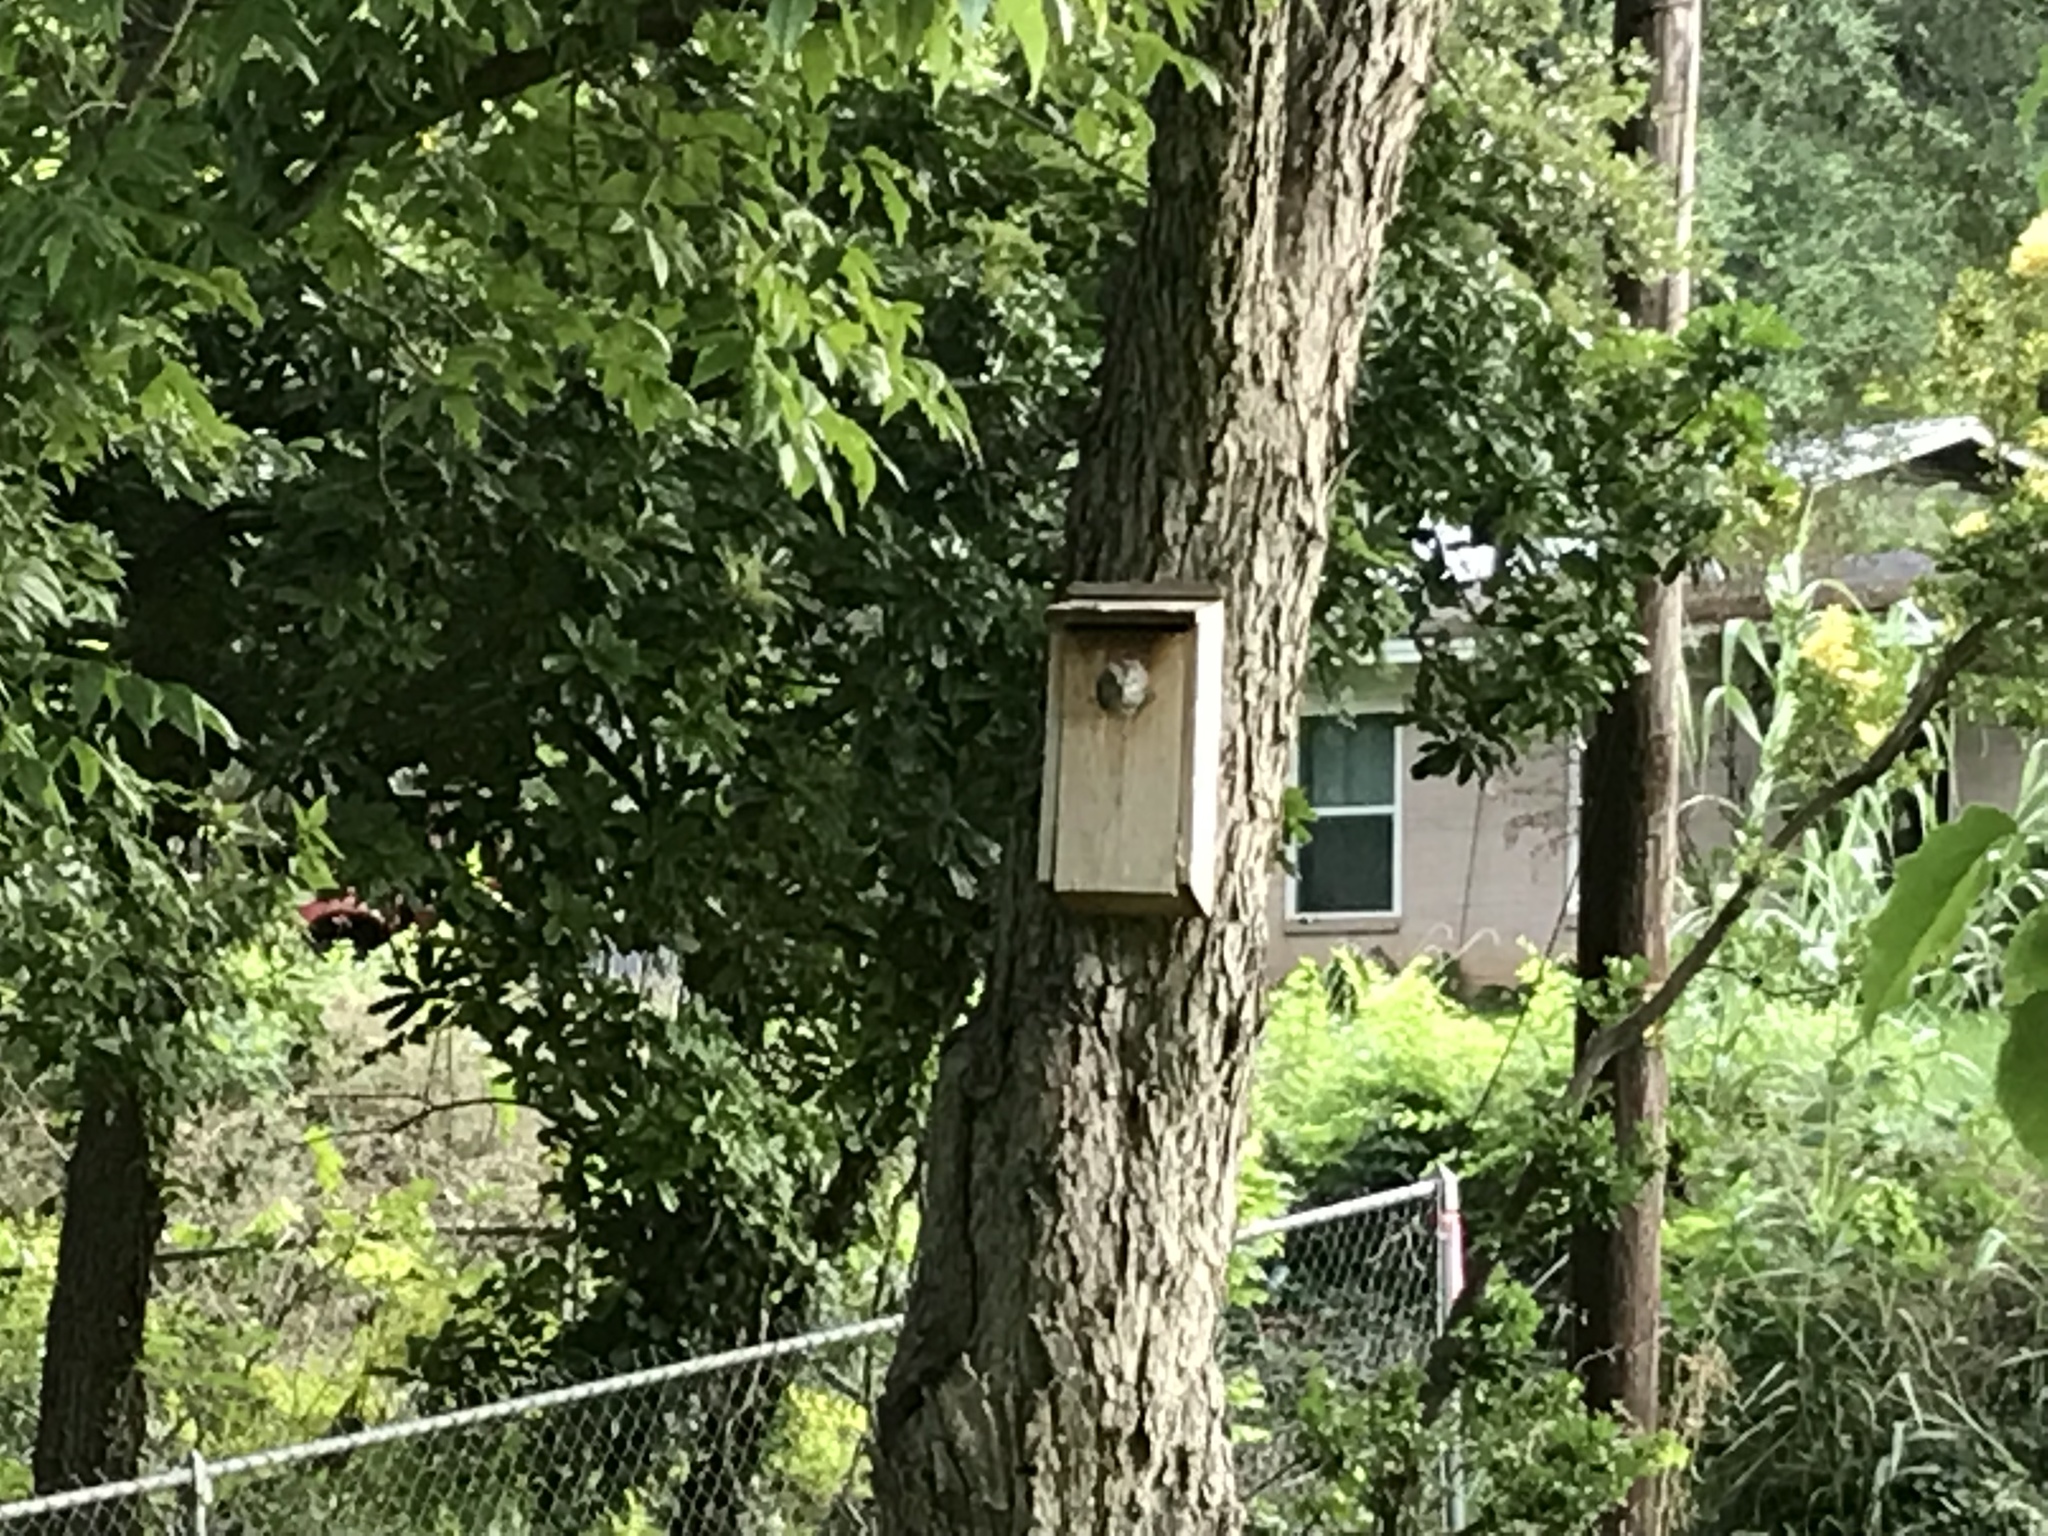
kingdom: Animalia
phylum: Chordata
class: Aves
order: Strigiformes
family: Strigidae
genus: Megascops
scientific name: Megascops asio
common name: Eastern screech-owl
